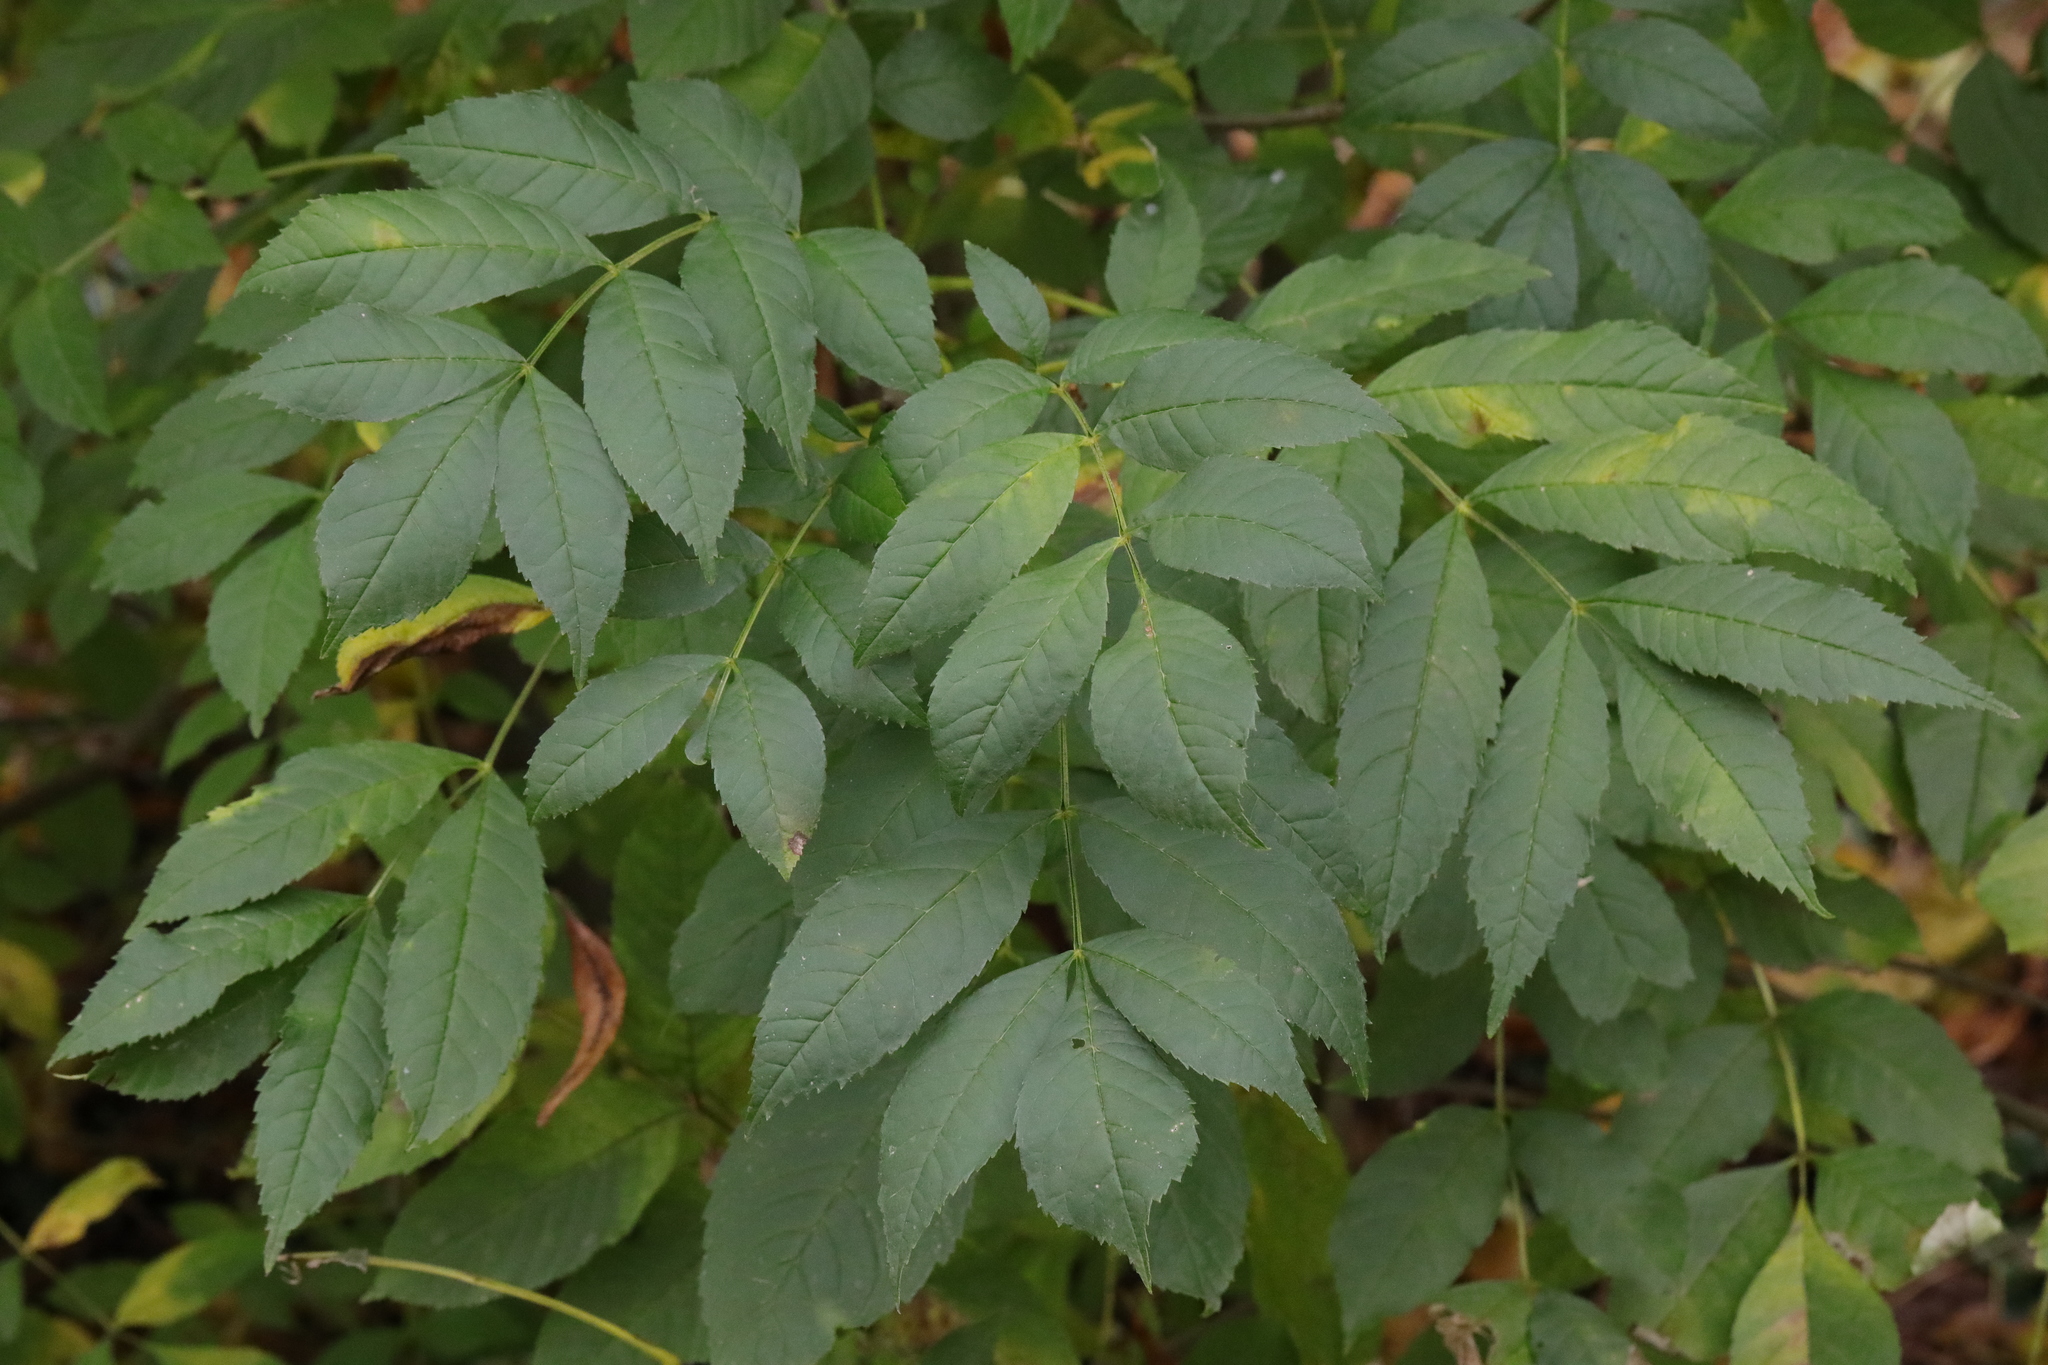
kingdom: Plantae
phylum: Tracheophyta
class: Magnoliopsida
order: Lamiales
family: Oleaceae
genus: Fraxinus
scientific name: Fraxinus excelsior
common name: European ash
